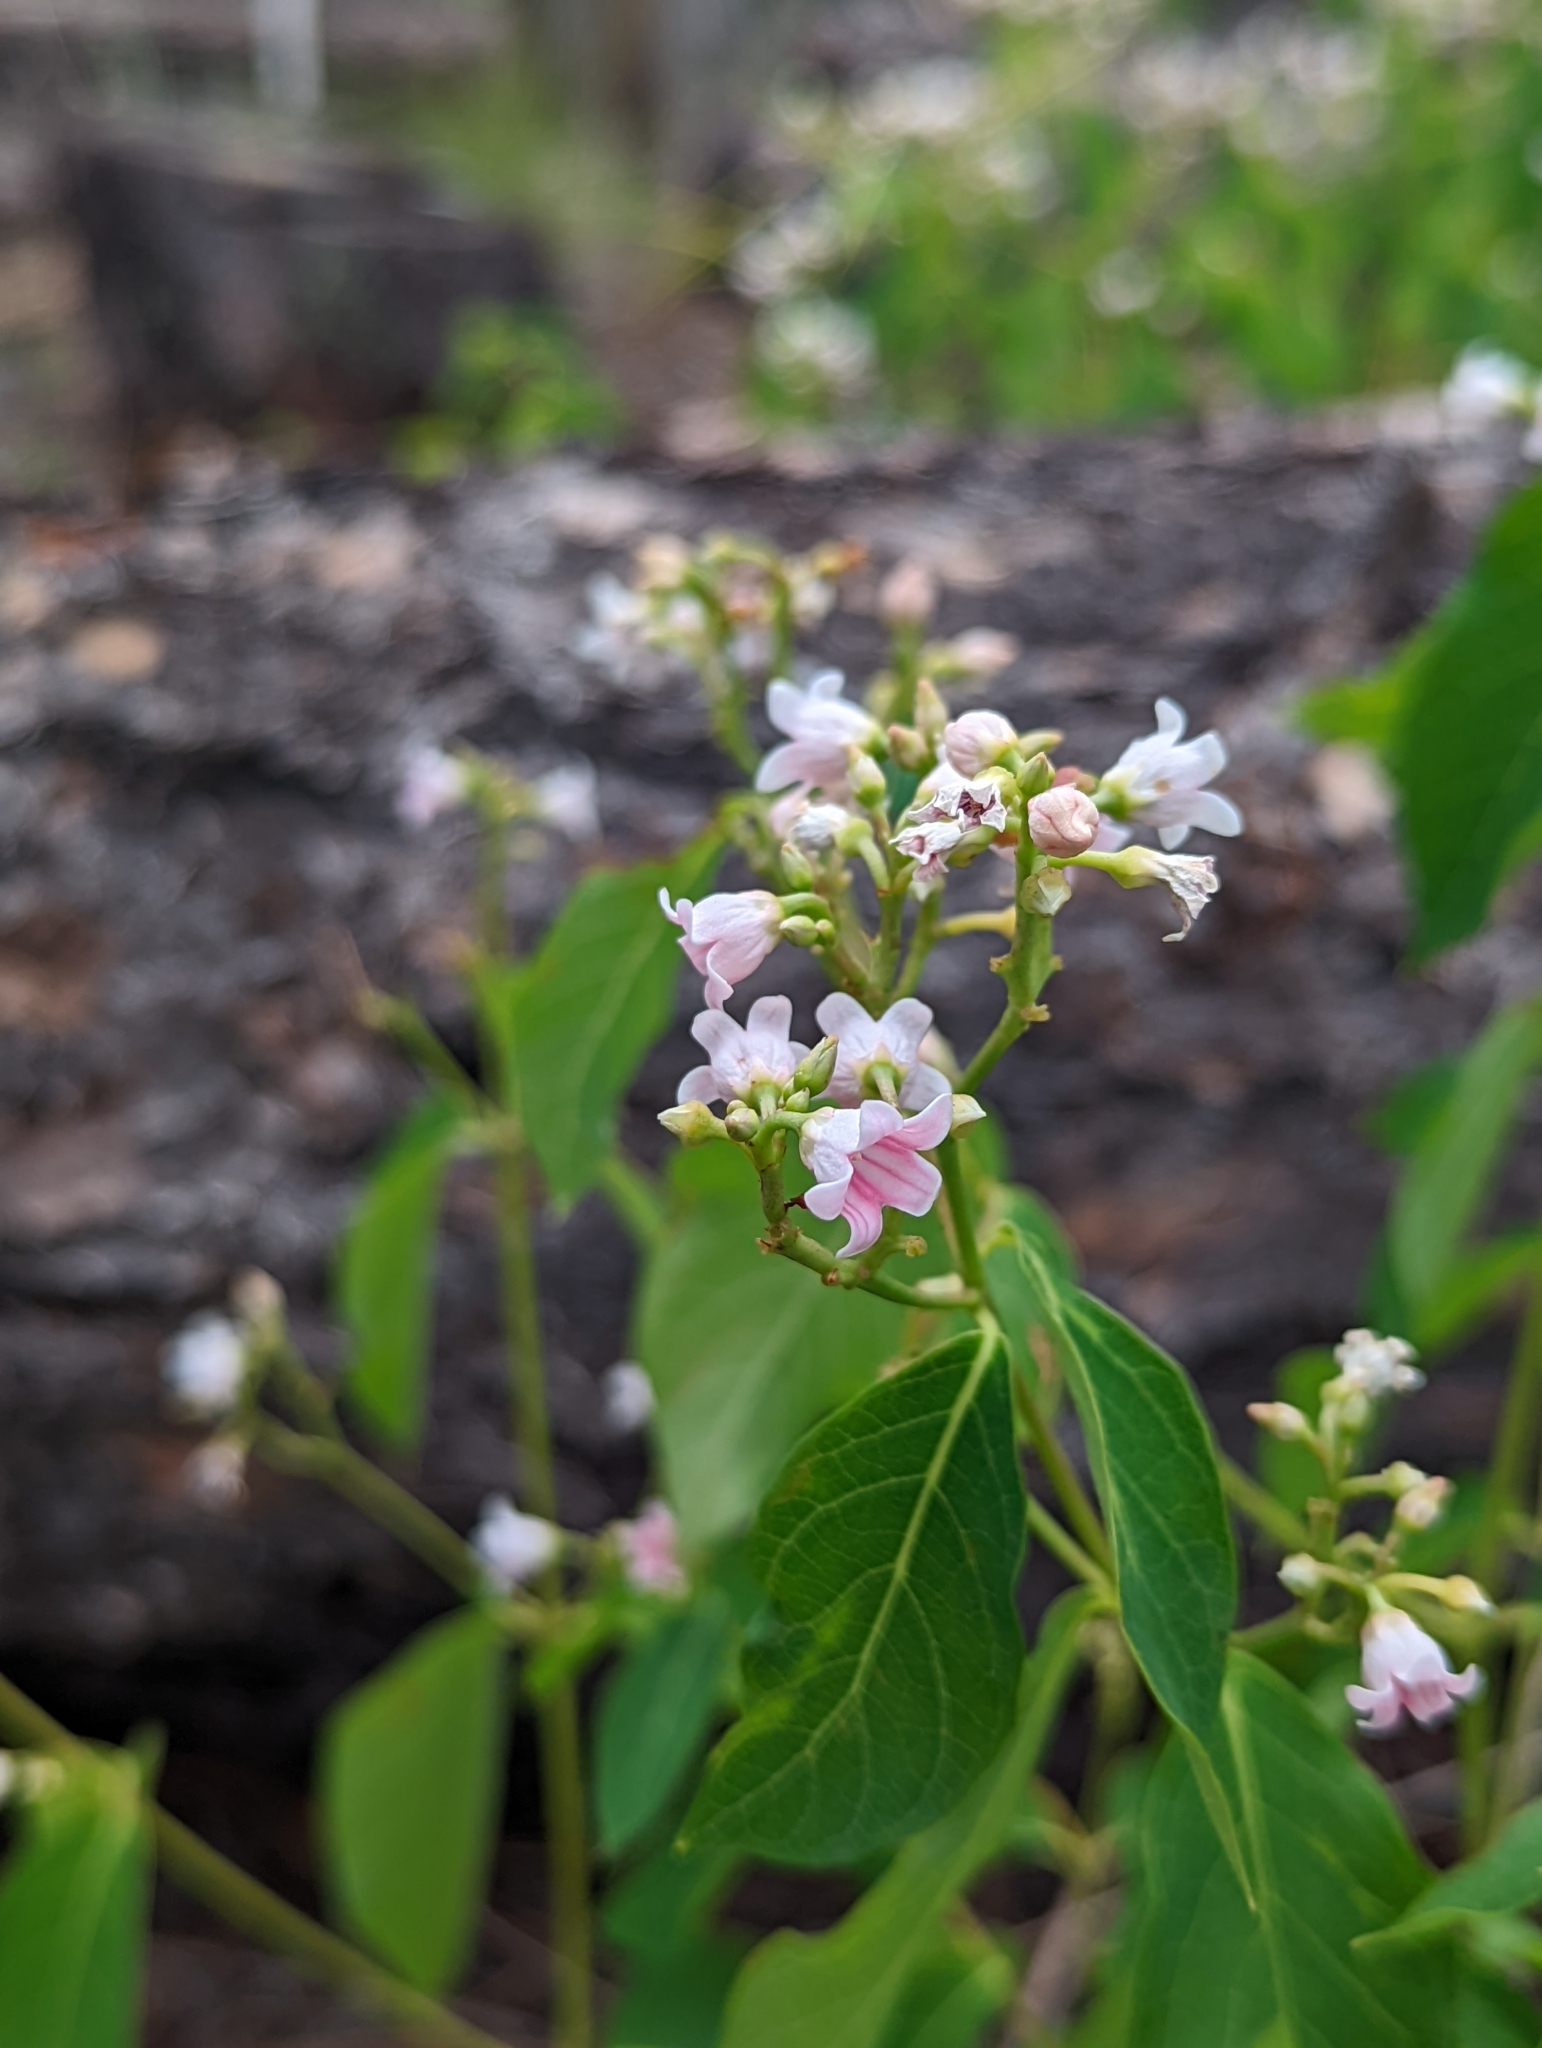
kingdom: Plantae
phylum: Tracheophyta
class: Magnoliopsida
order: Gentianales
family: Apocynaceae
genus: Apocynum
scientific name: Apocynum androsaemifolium
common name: Spreading dogbane
